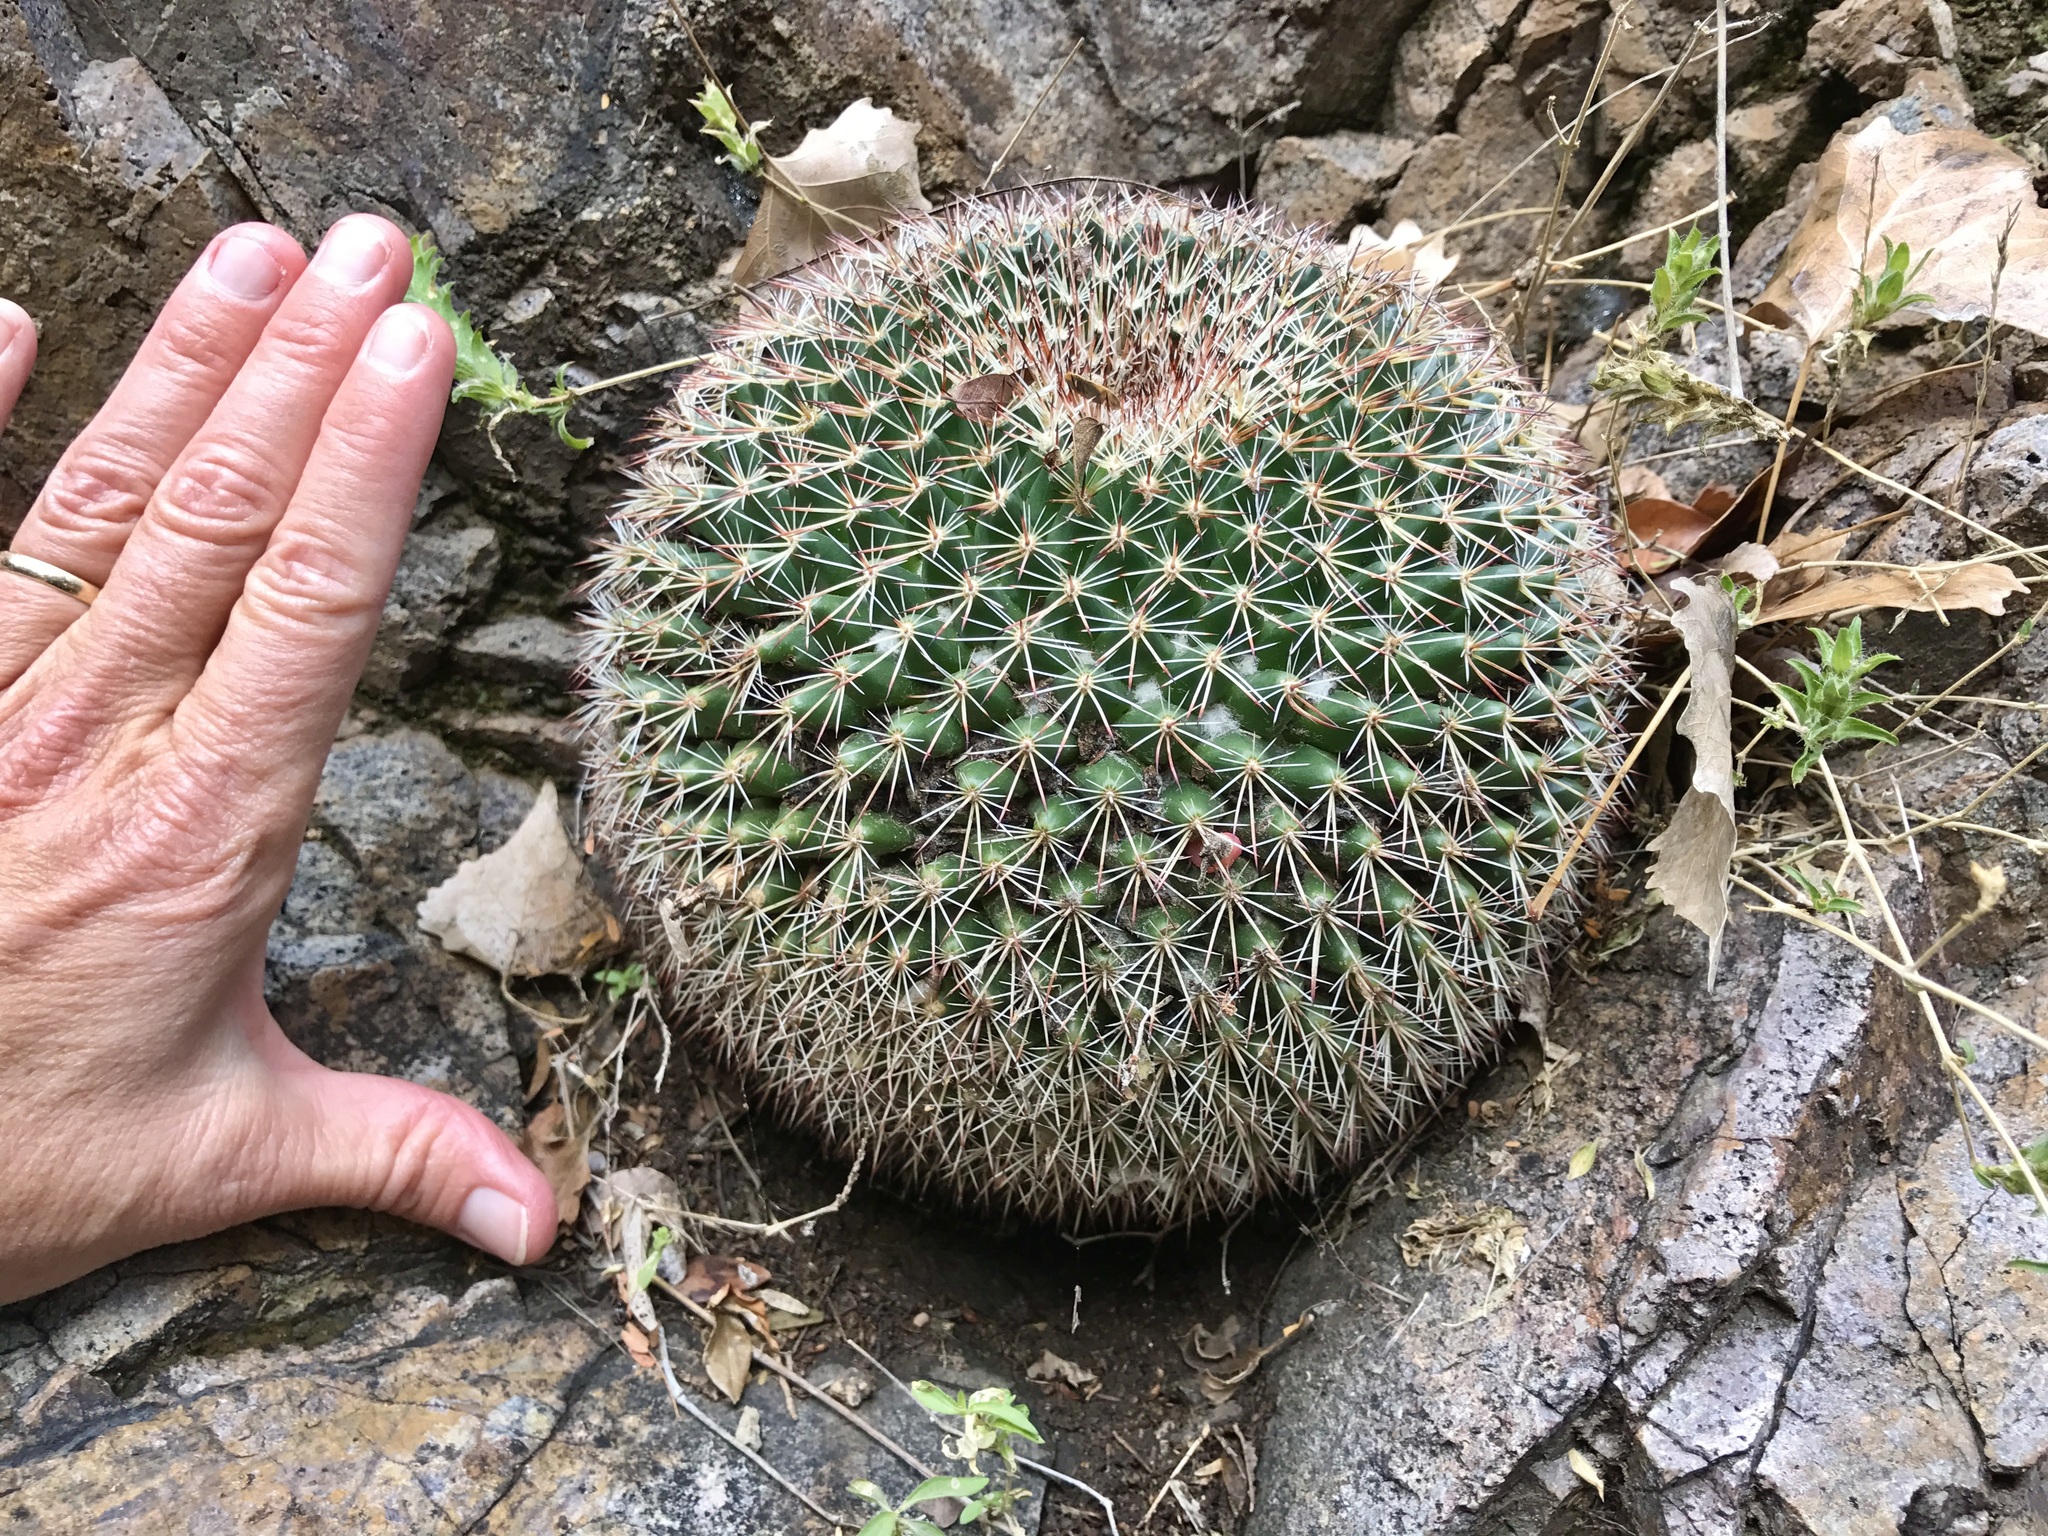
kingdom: Plantae
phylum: Tracheophyta
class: Magnoliopsida
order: Caryophyllales
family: Cactaceae
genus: Mammillaria
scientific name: Mammillaria heyderi
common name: Little nipple cactus
